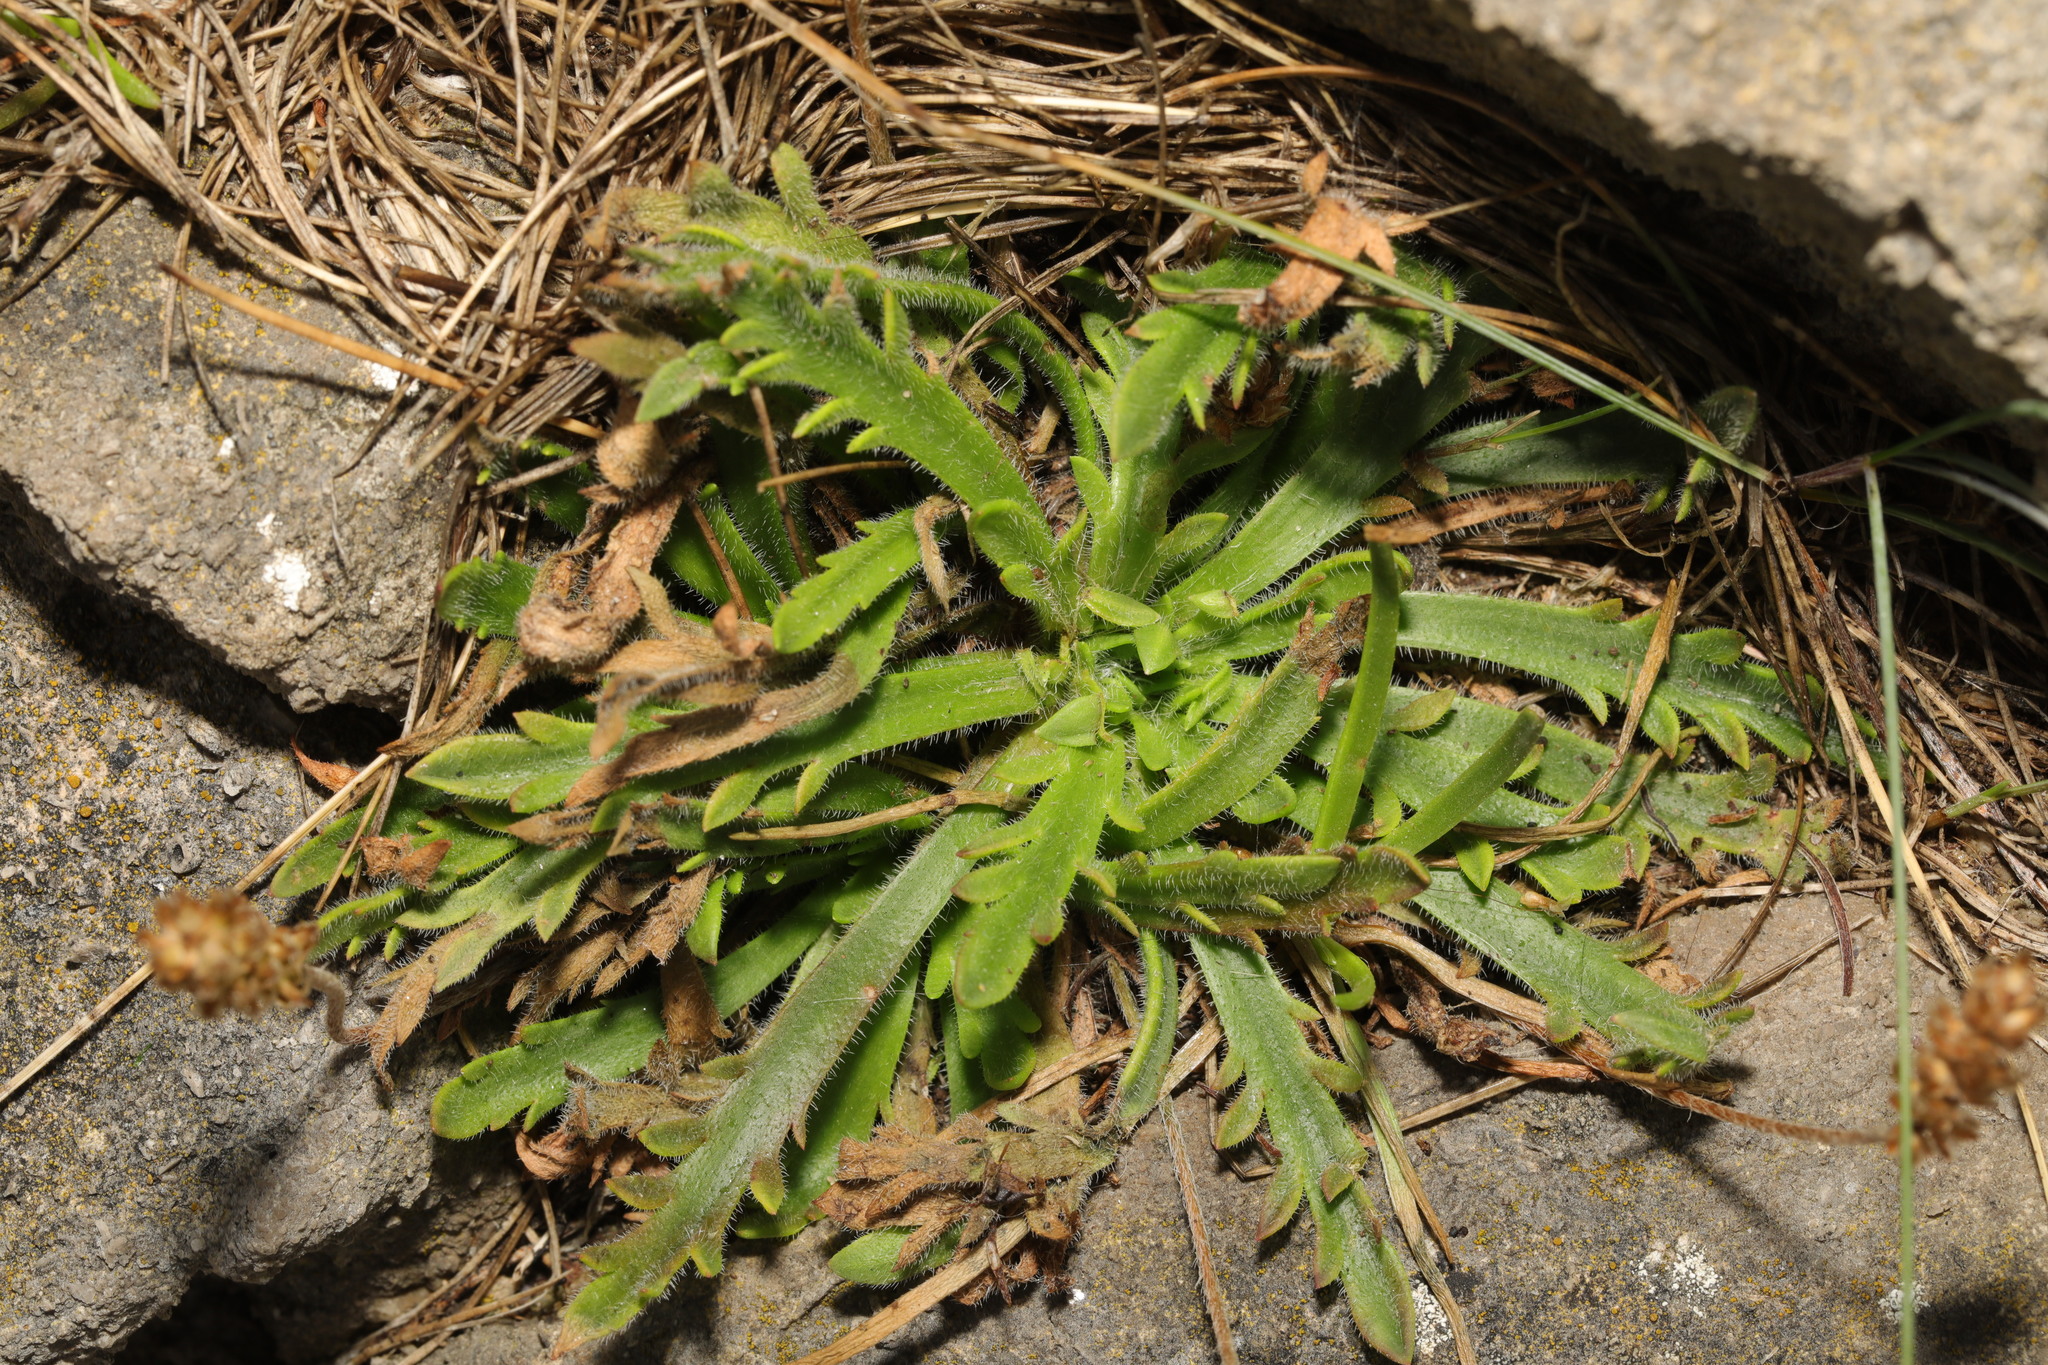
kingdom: Plantae
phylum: Tracheophyta
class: Magnoliopsida
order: Lamiales
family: Plantaginaceae
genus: Plantago
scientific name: Plantago coronopus
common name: Buck's-horn plantain
